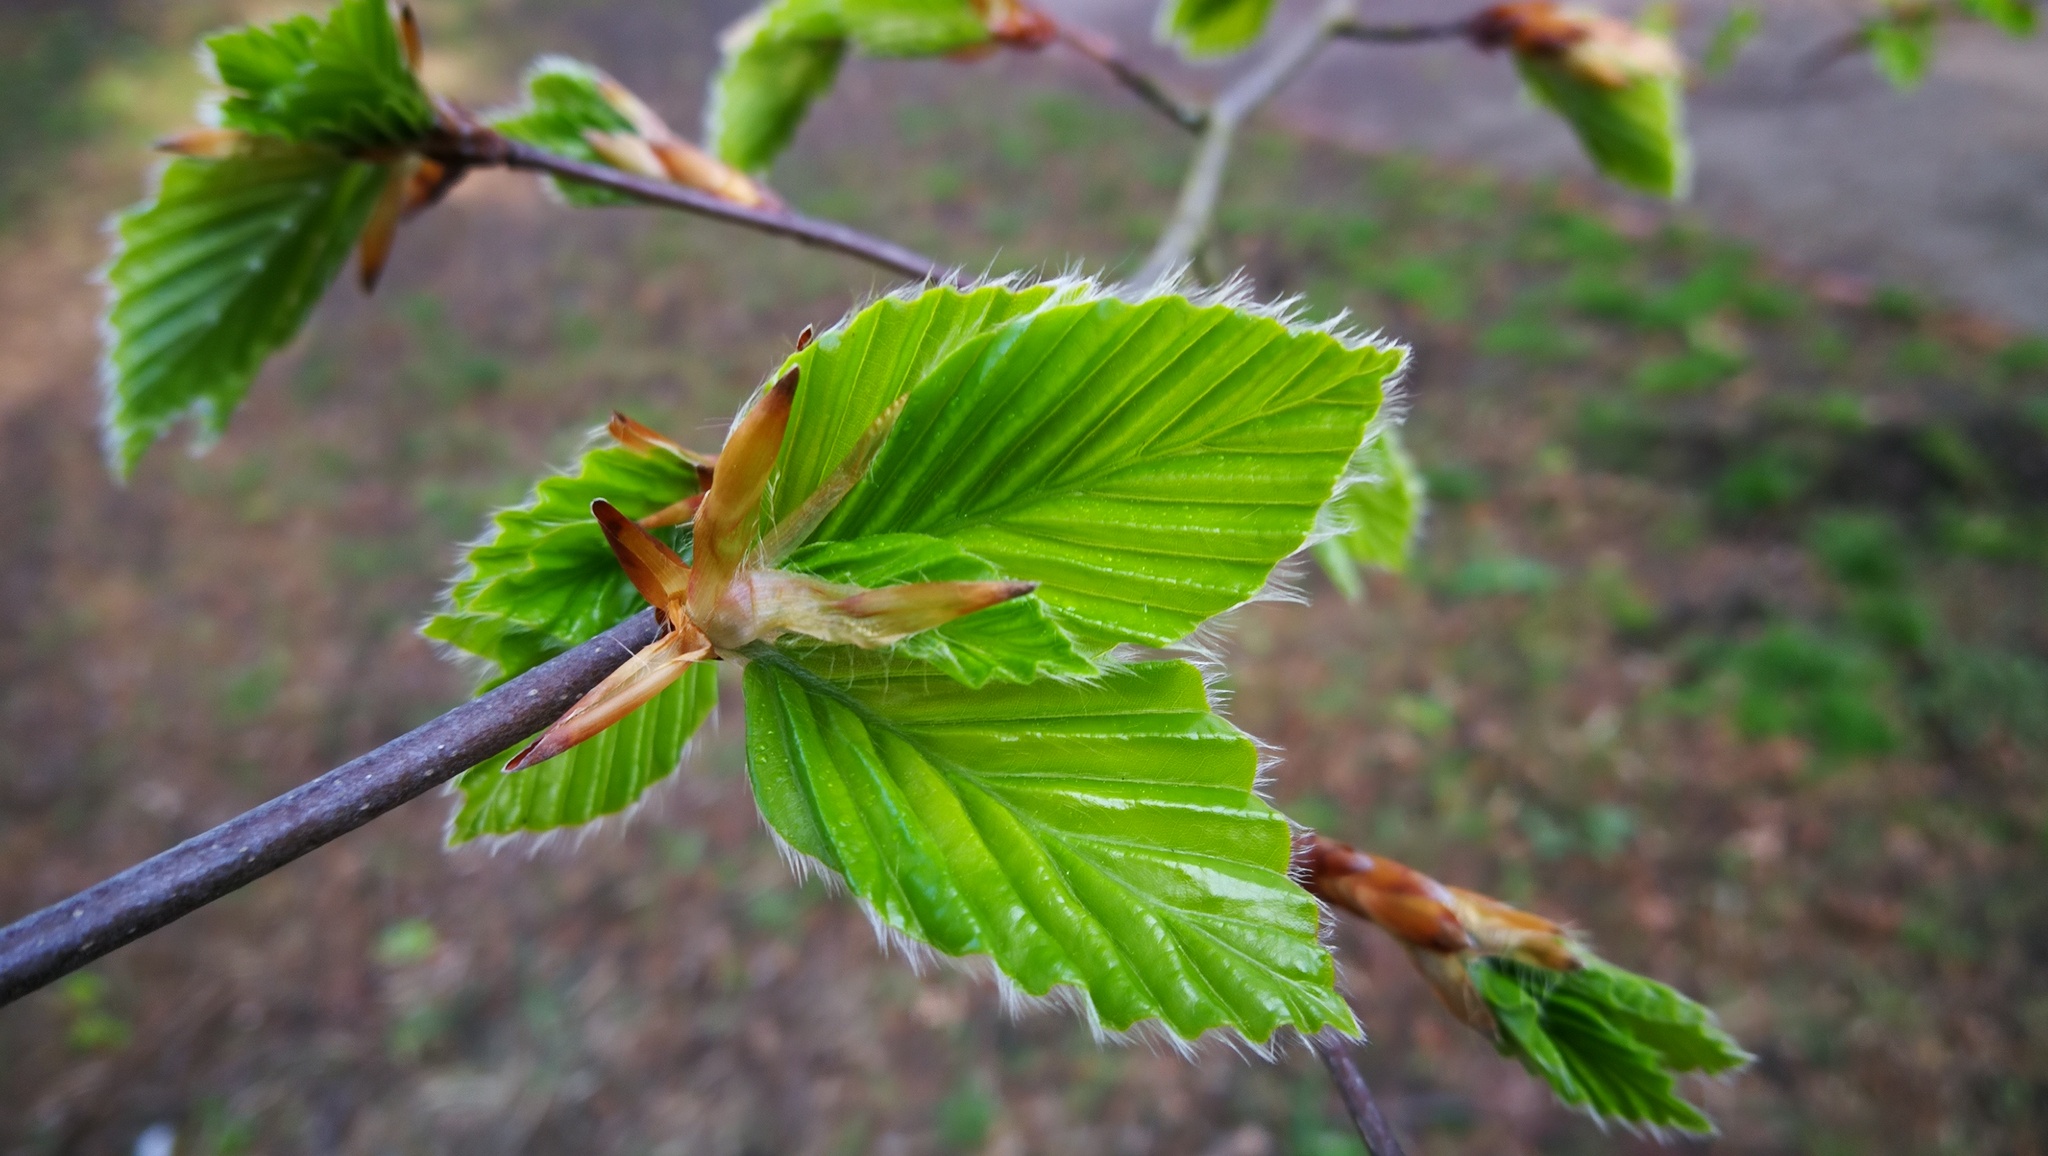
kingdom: Plantae
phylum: Tracheophyta
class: Magnoliopsida
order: Fagales
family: Fagaceae
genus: Fagus
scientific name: Fagus sylvatica
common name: Beech
